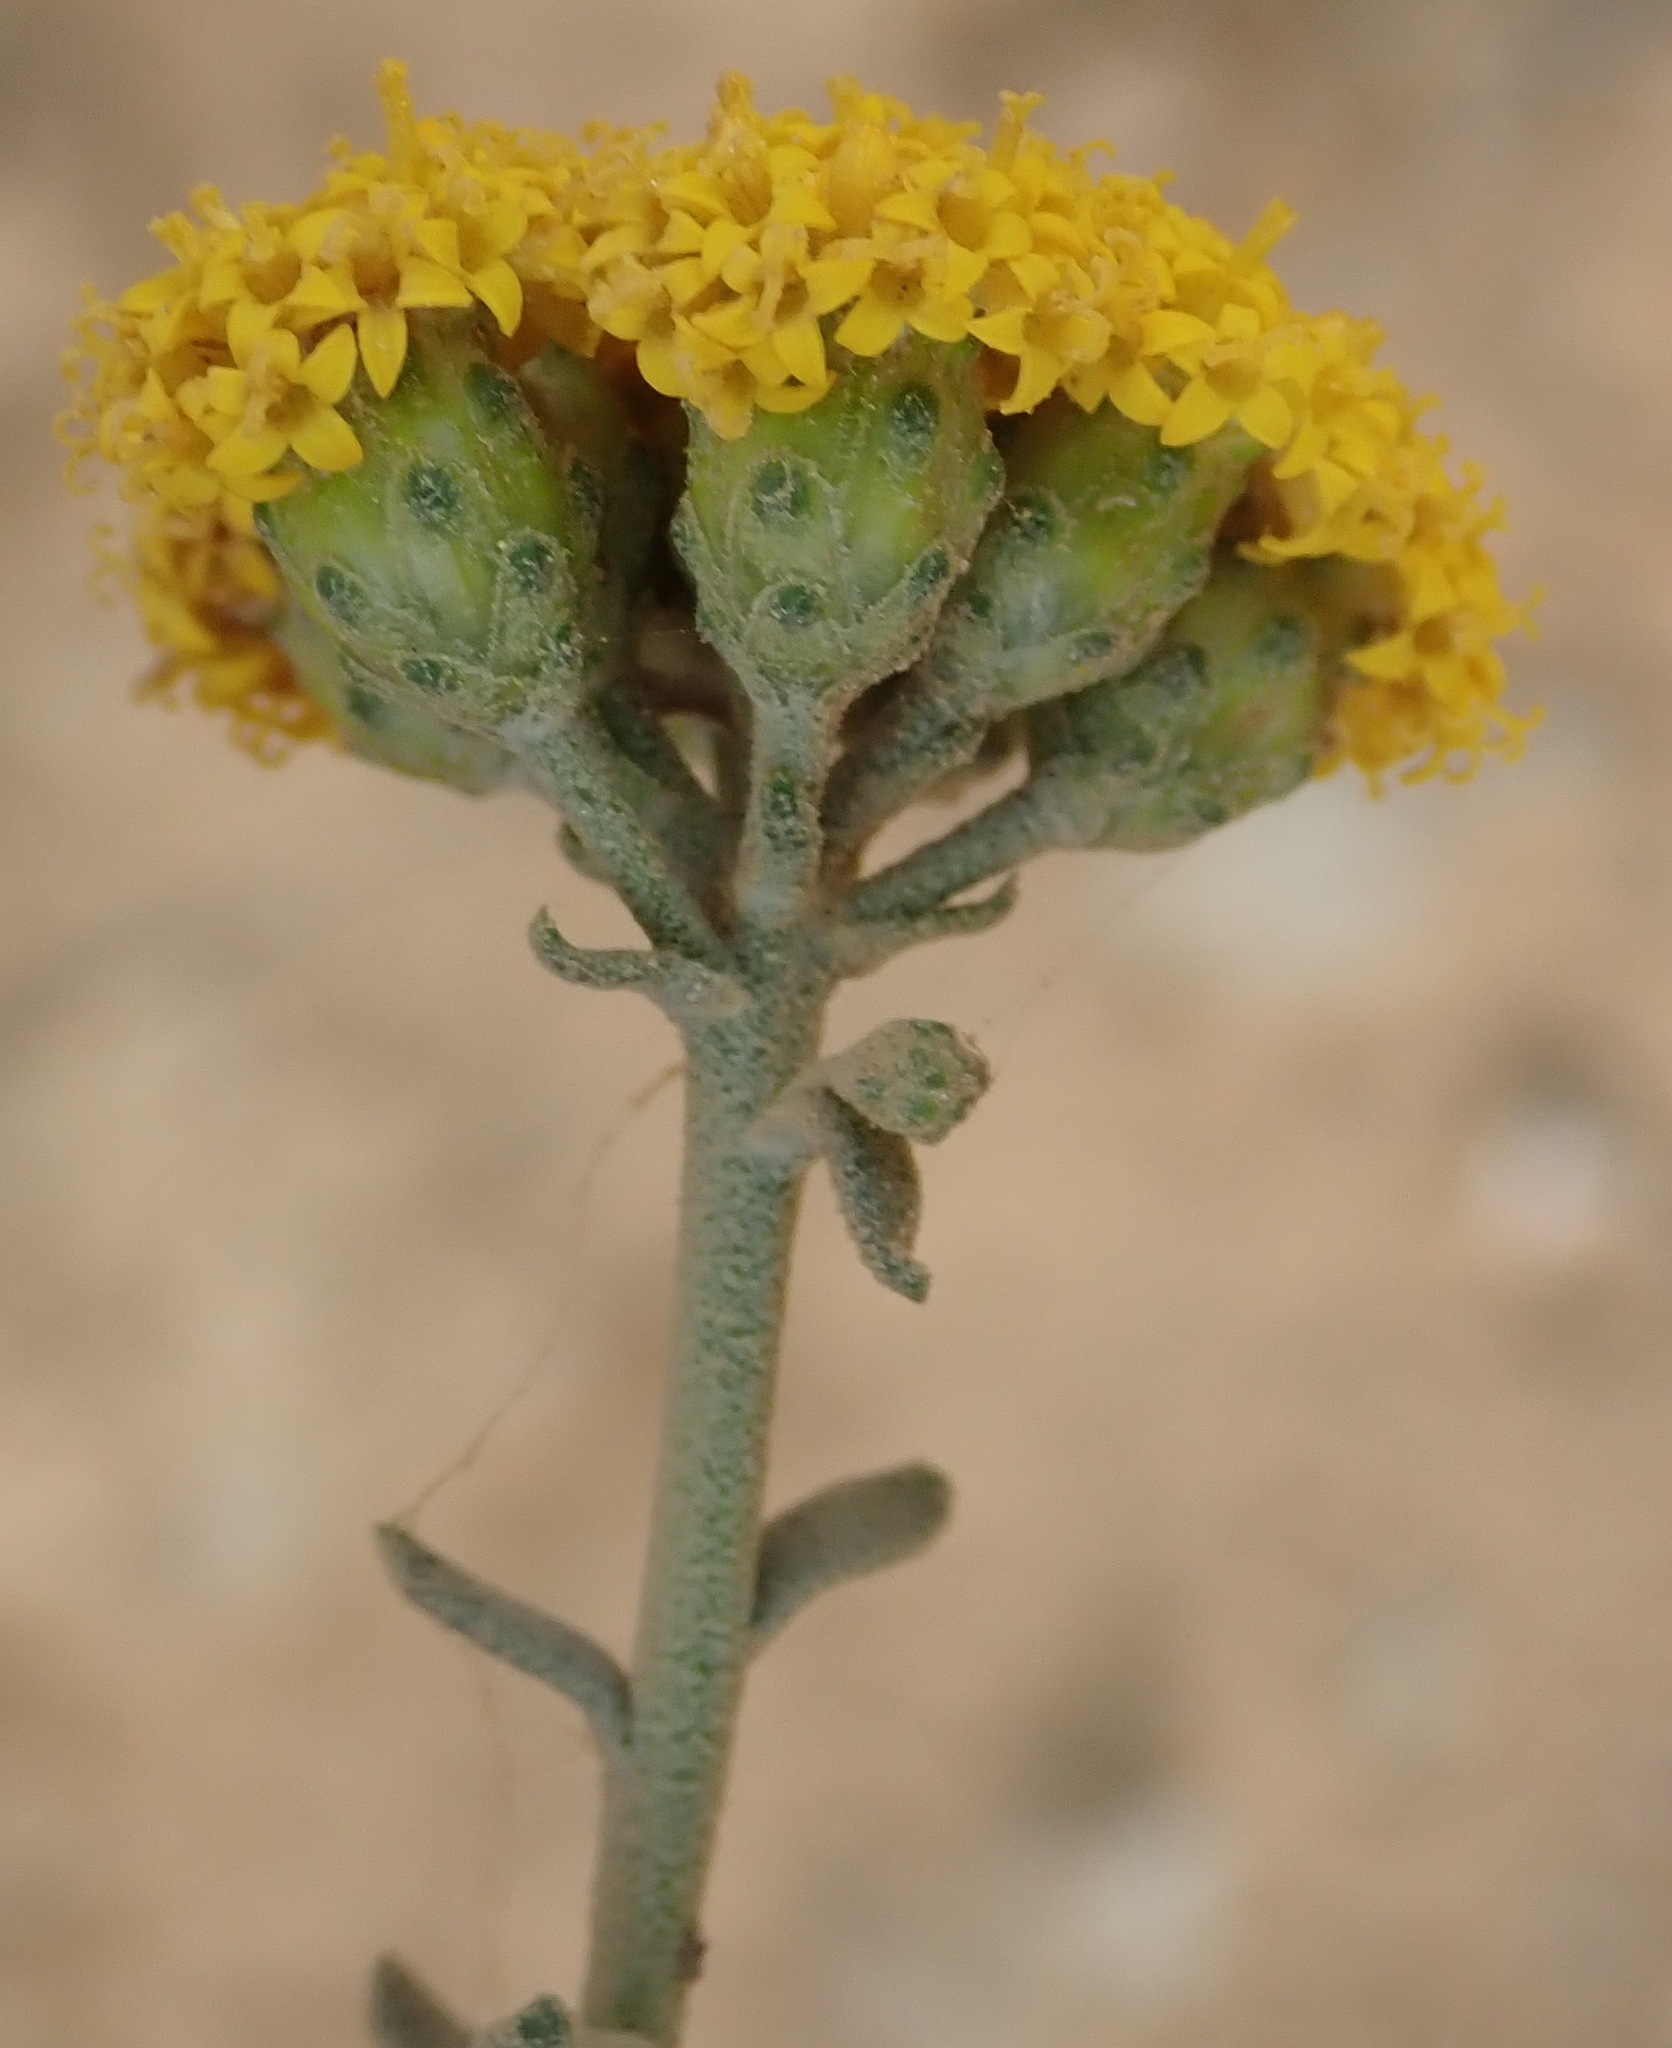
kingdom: Plantae
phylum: Tracheophyta
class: Magnoliopsida
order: Asterales
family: Asteraceae
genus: Athanasia
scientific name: Athanasia trifurcata
